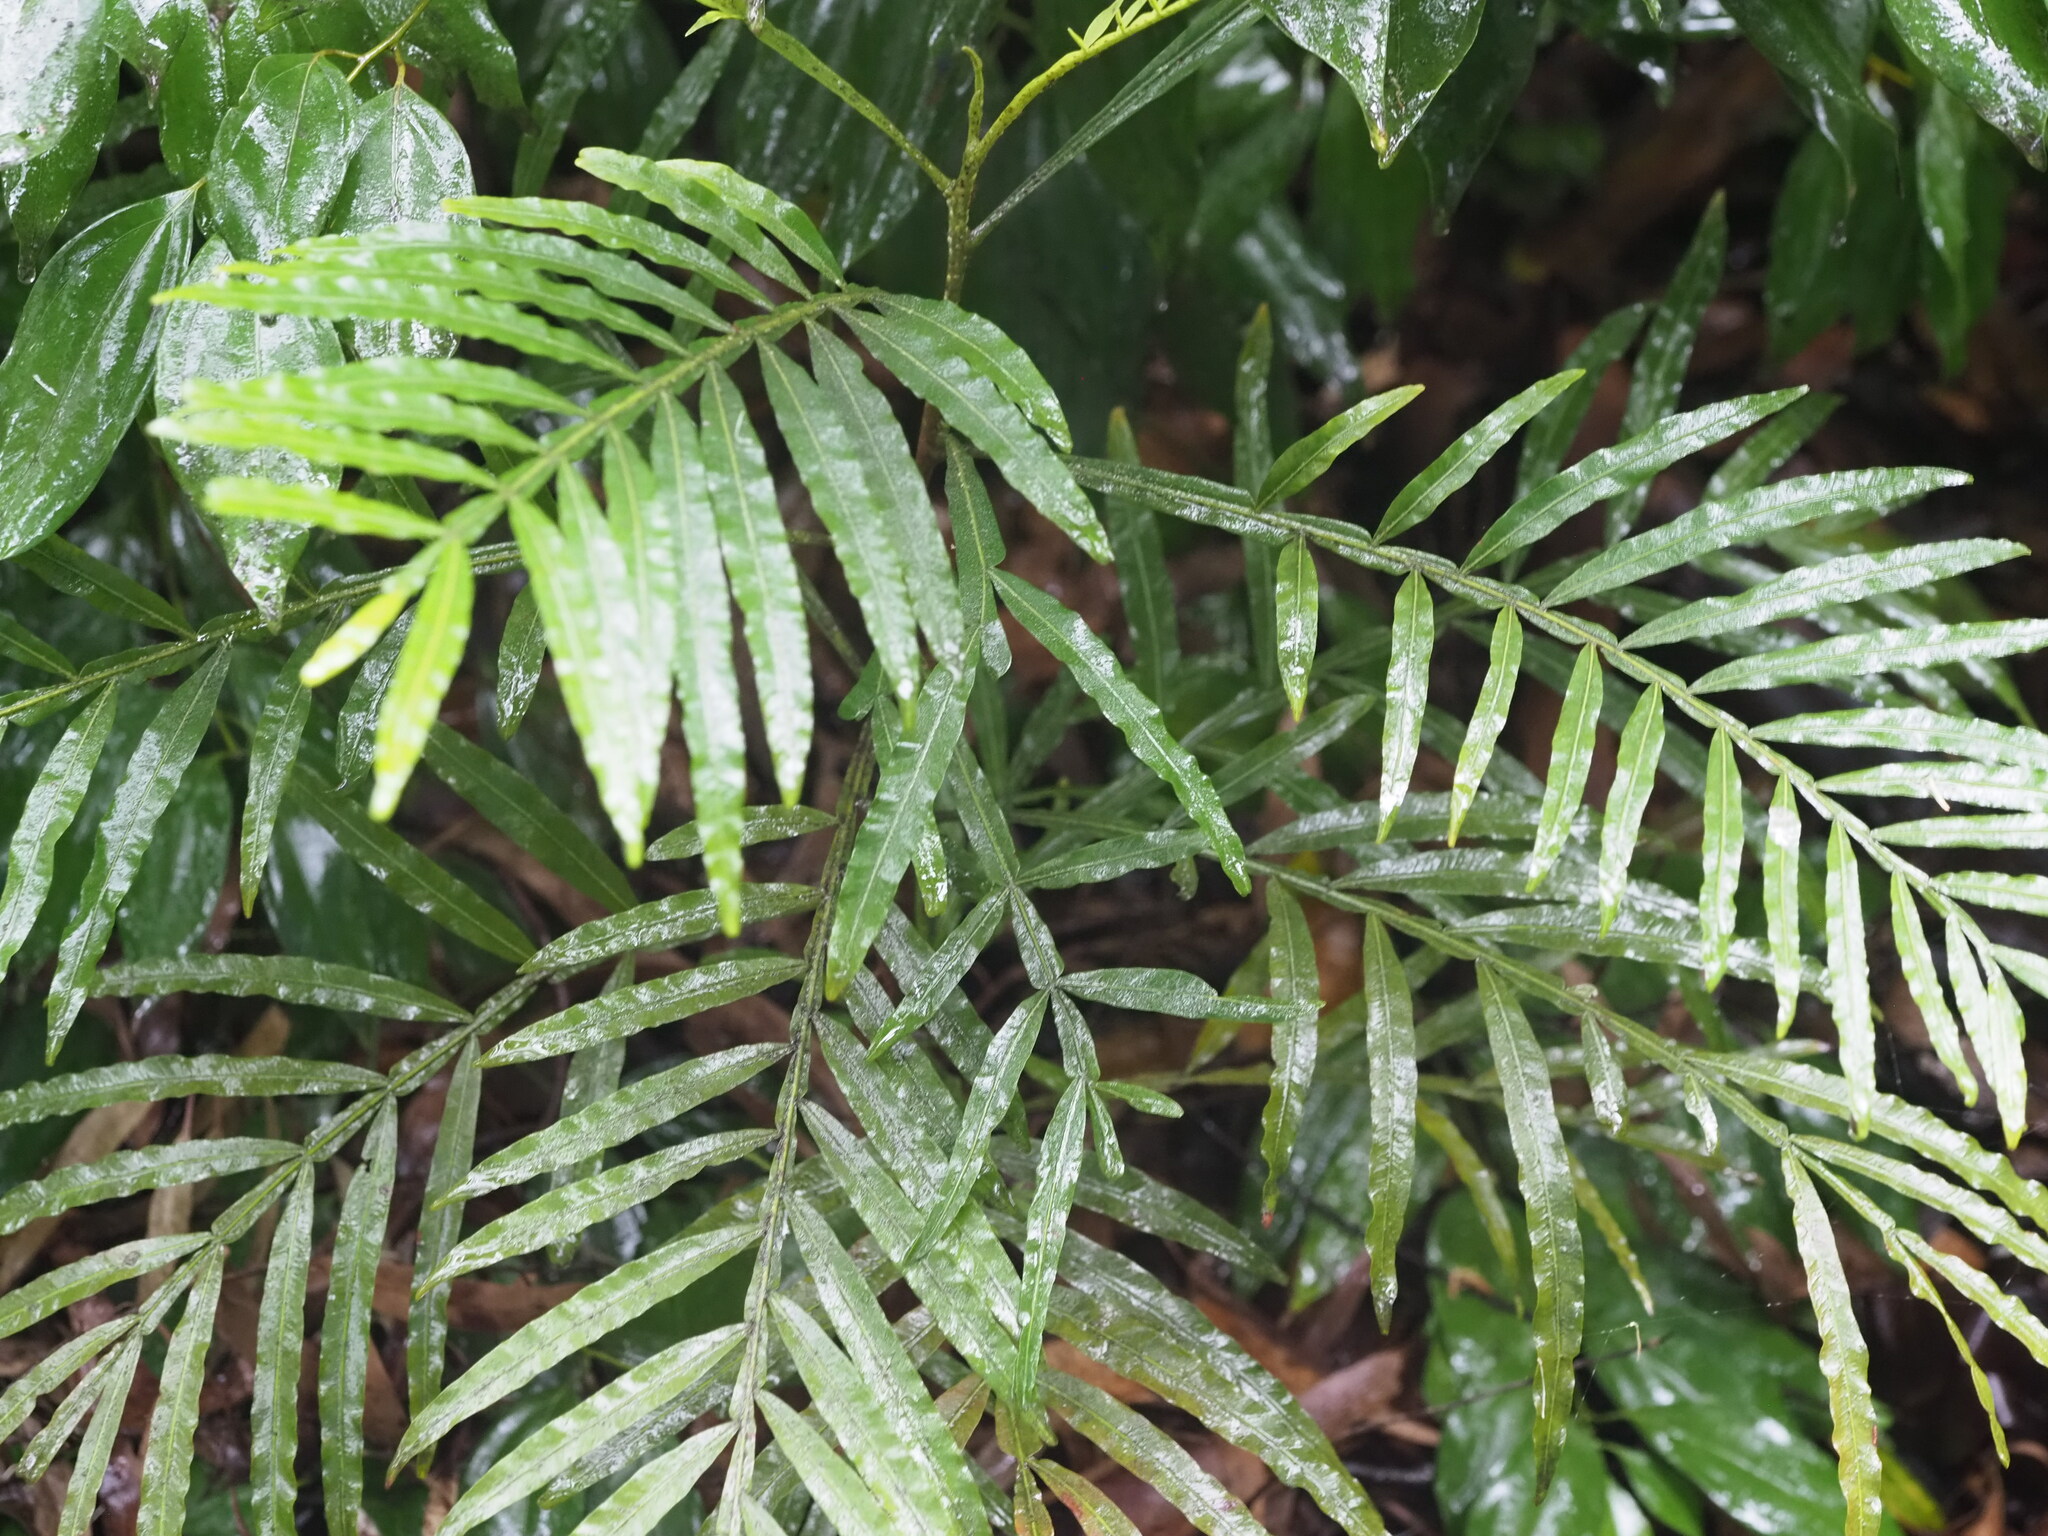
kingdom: Plantae
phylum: Tracheophyta
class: Magnoliopsida
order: Sapindales
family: Sapindaceae
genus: Filicium
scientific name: Filicium decipiens
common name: Ferntree
